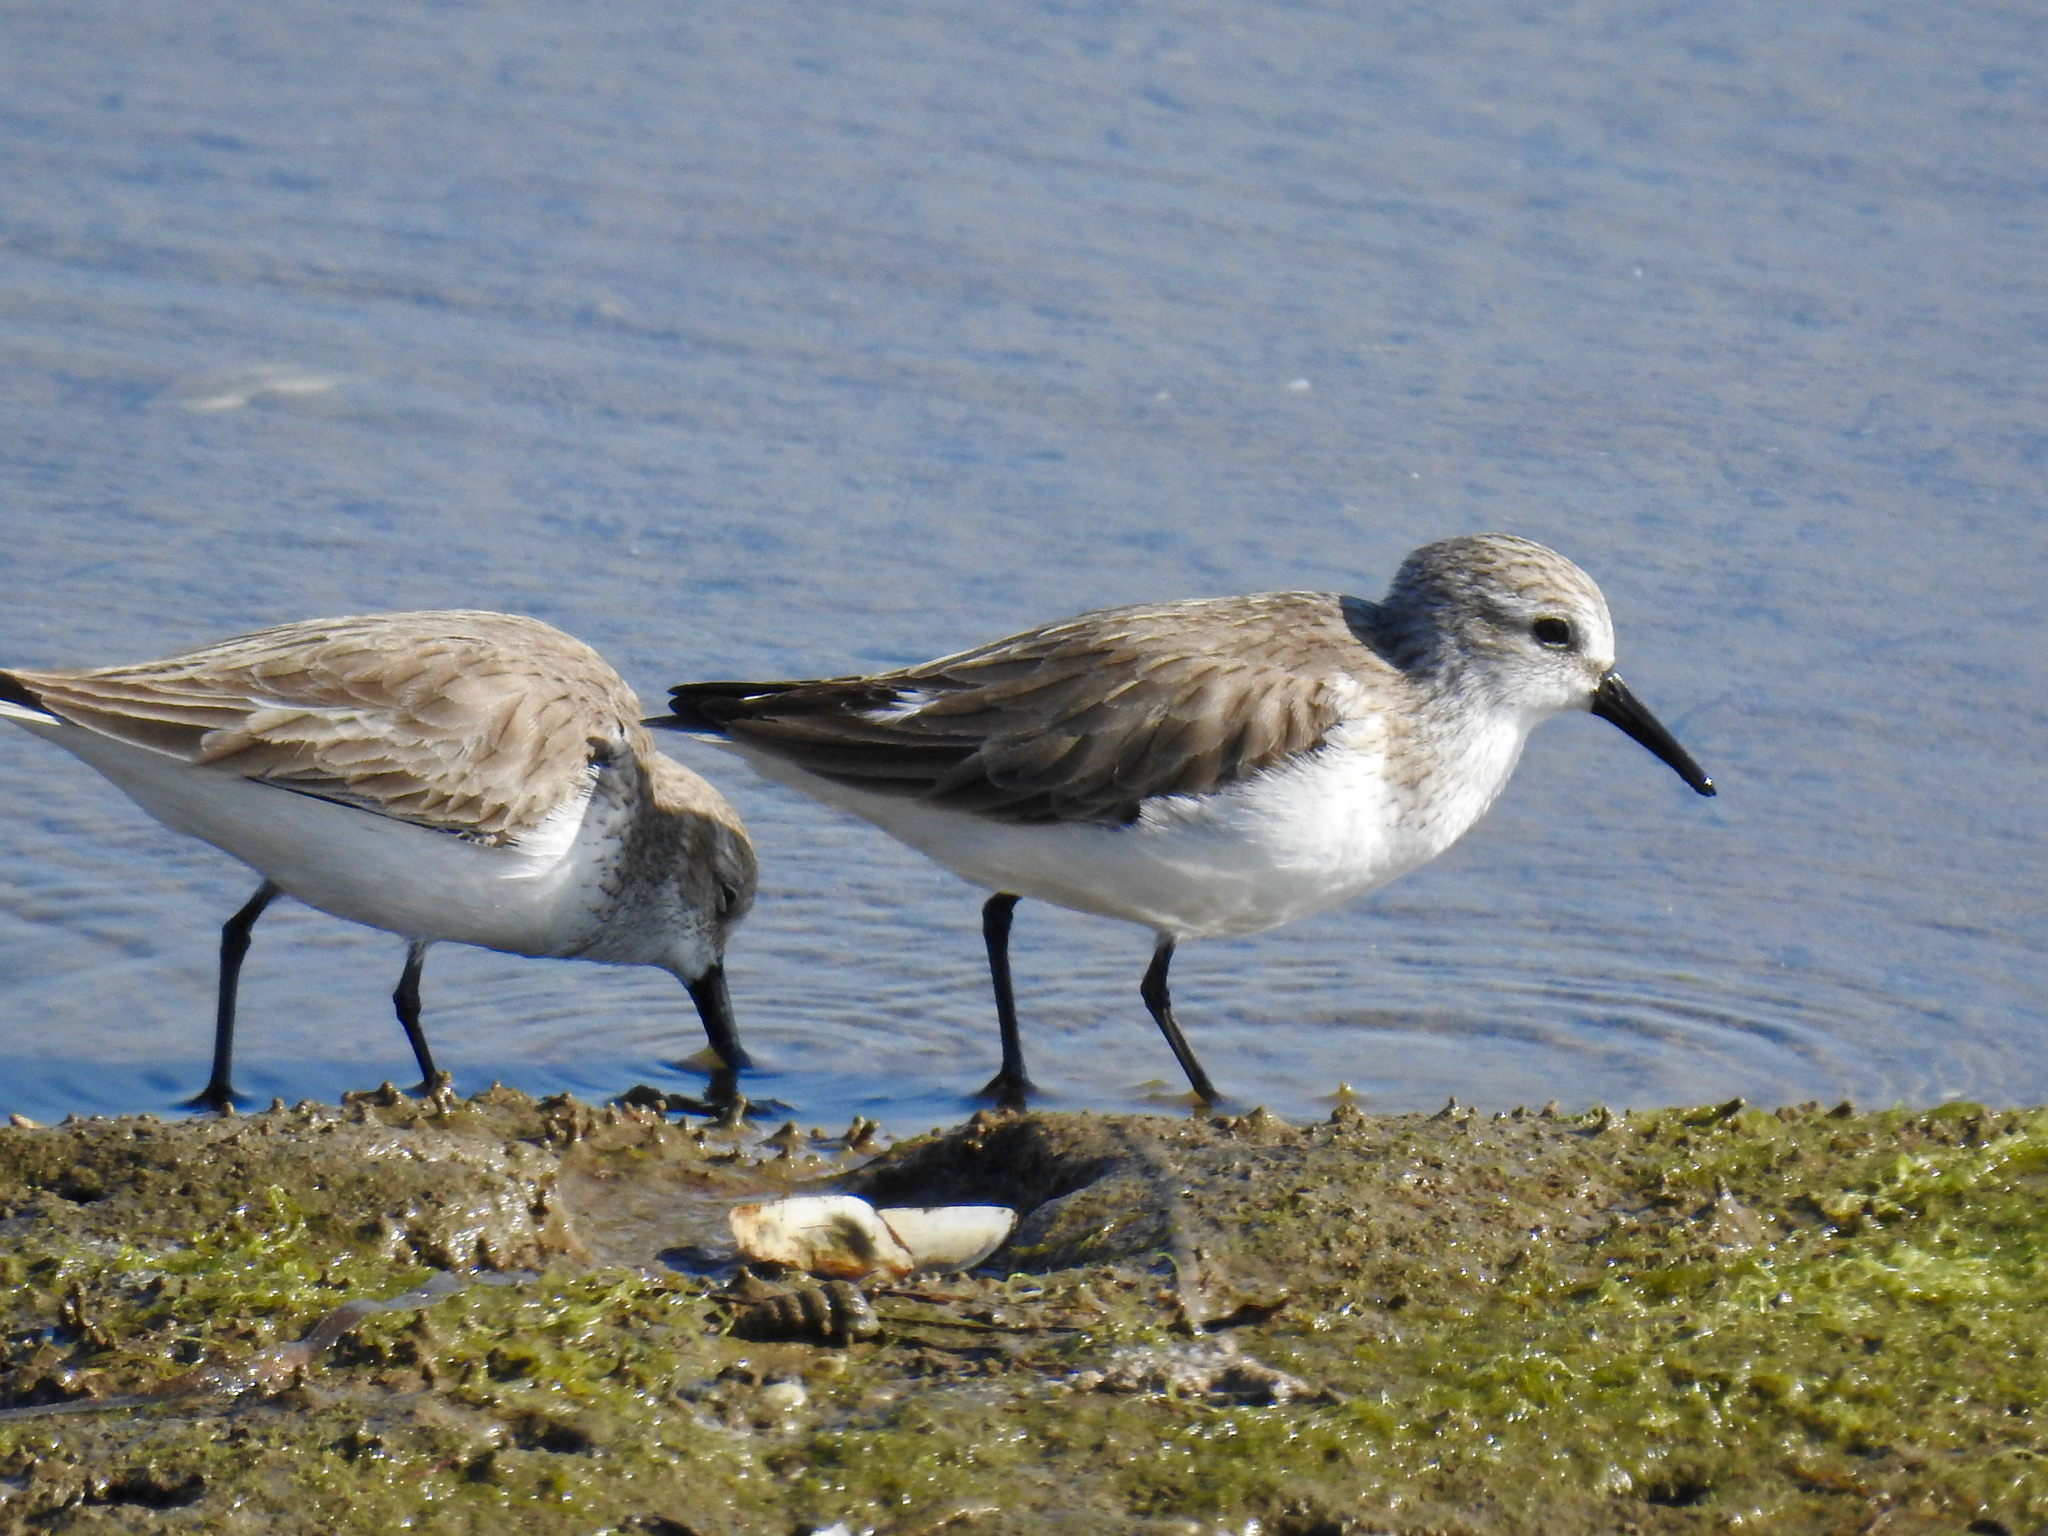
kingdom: Animalia
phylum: Chordata
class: Aves
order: Charadriiformes
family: Scolopacidae
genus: Calidris
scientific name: Calidris mauri
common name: Western sandpiper
